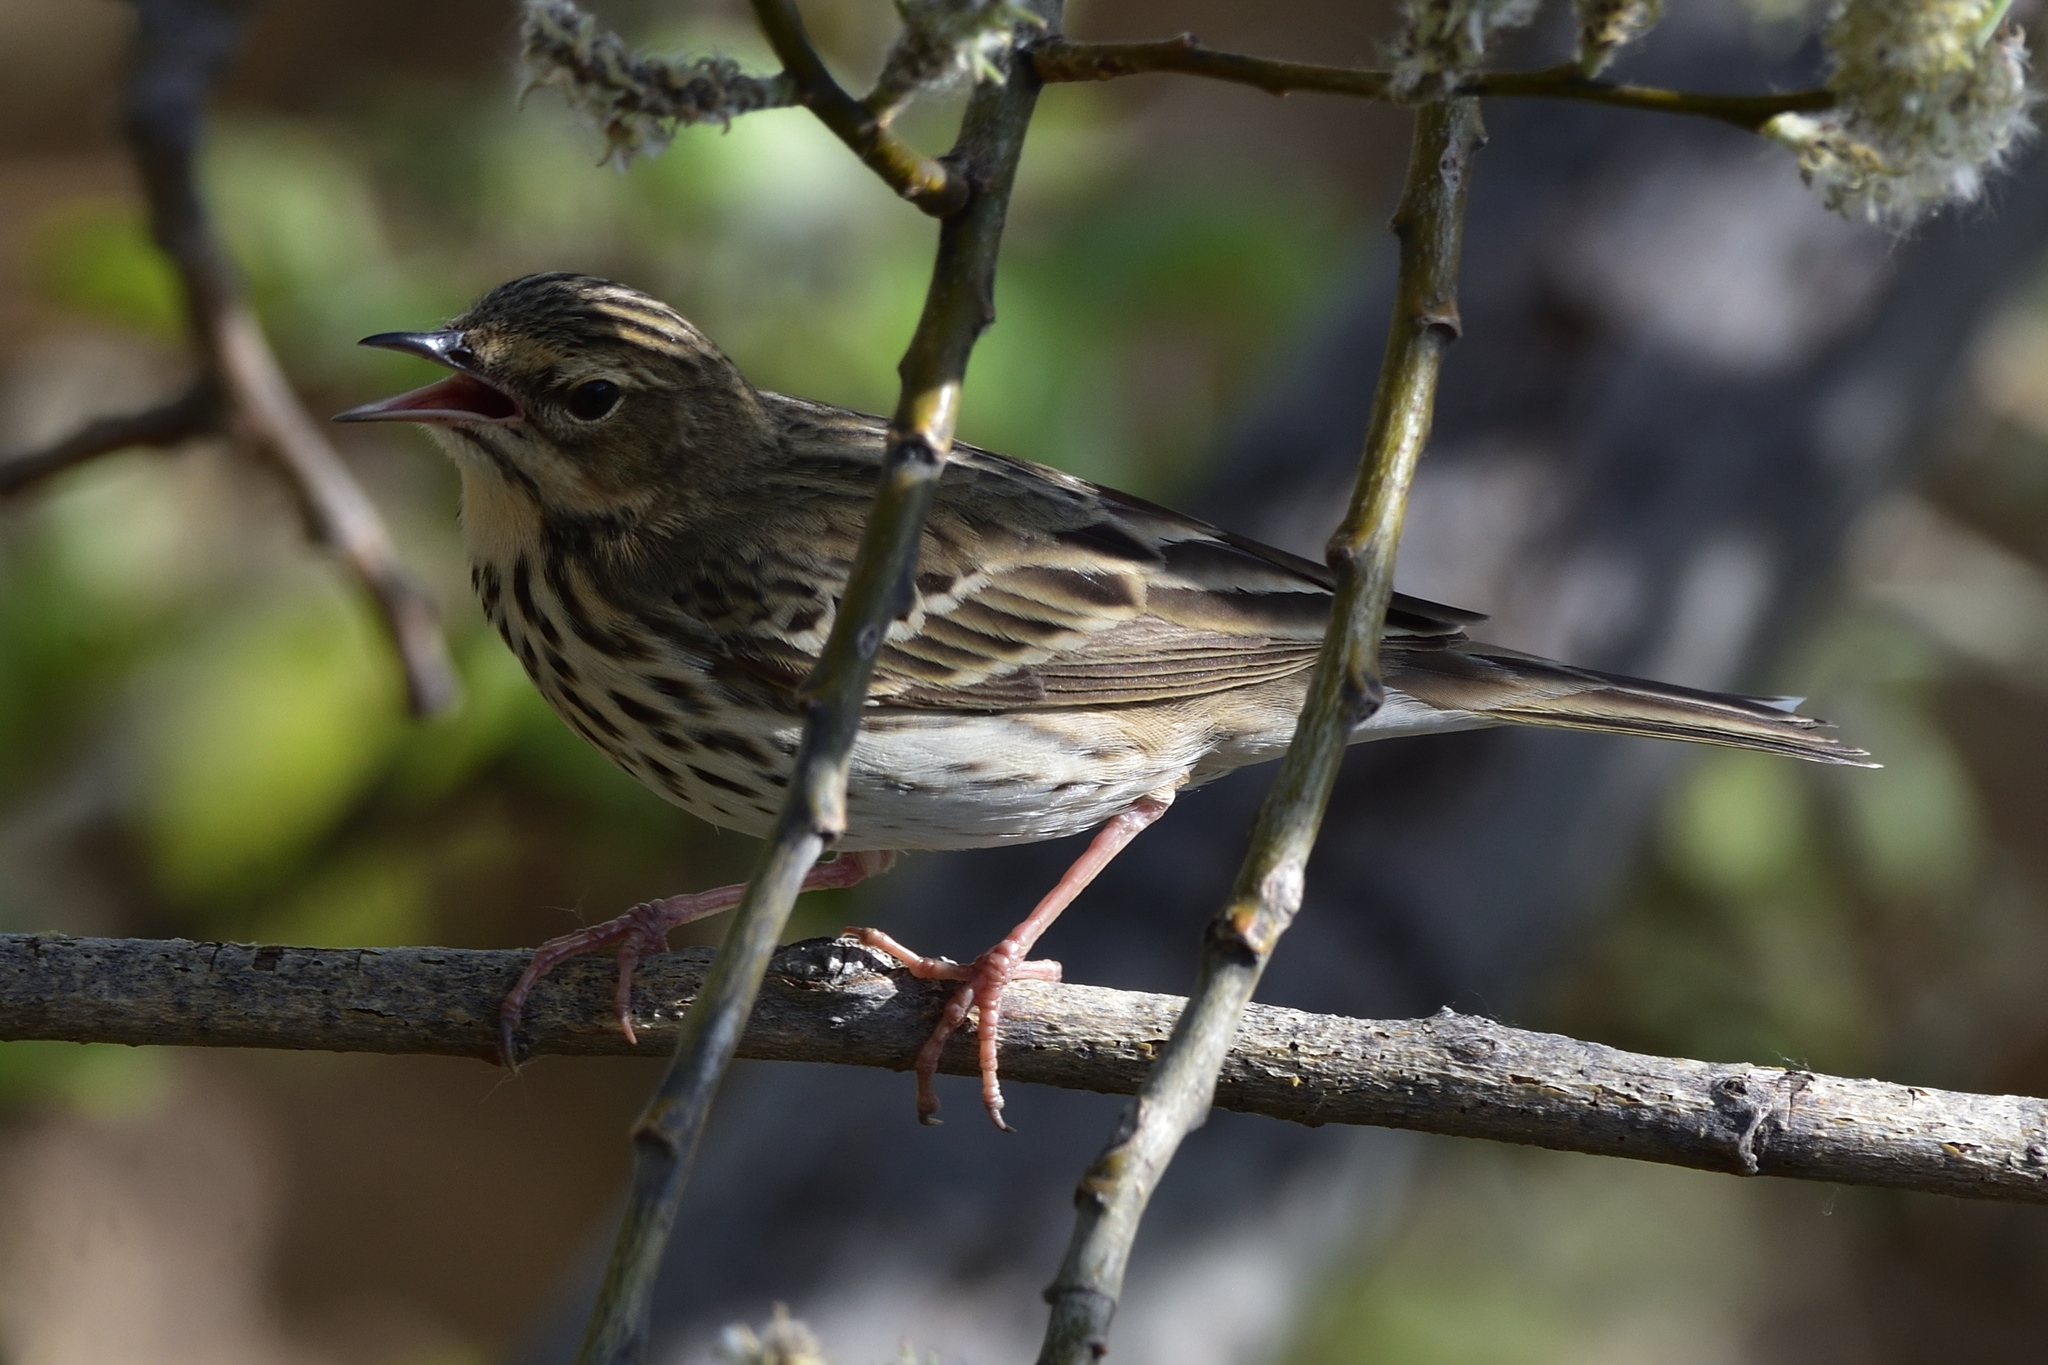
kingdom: Animalia
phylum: Chordata
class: Aves
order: Passeriformes
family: Motacillidae
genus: Anthus
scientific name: Anthus trivialis
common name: Tree pipit
